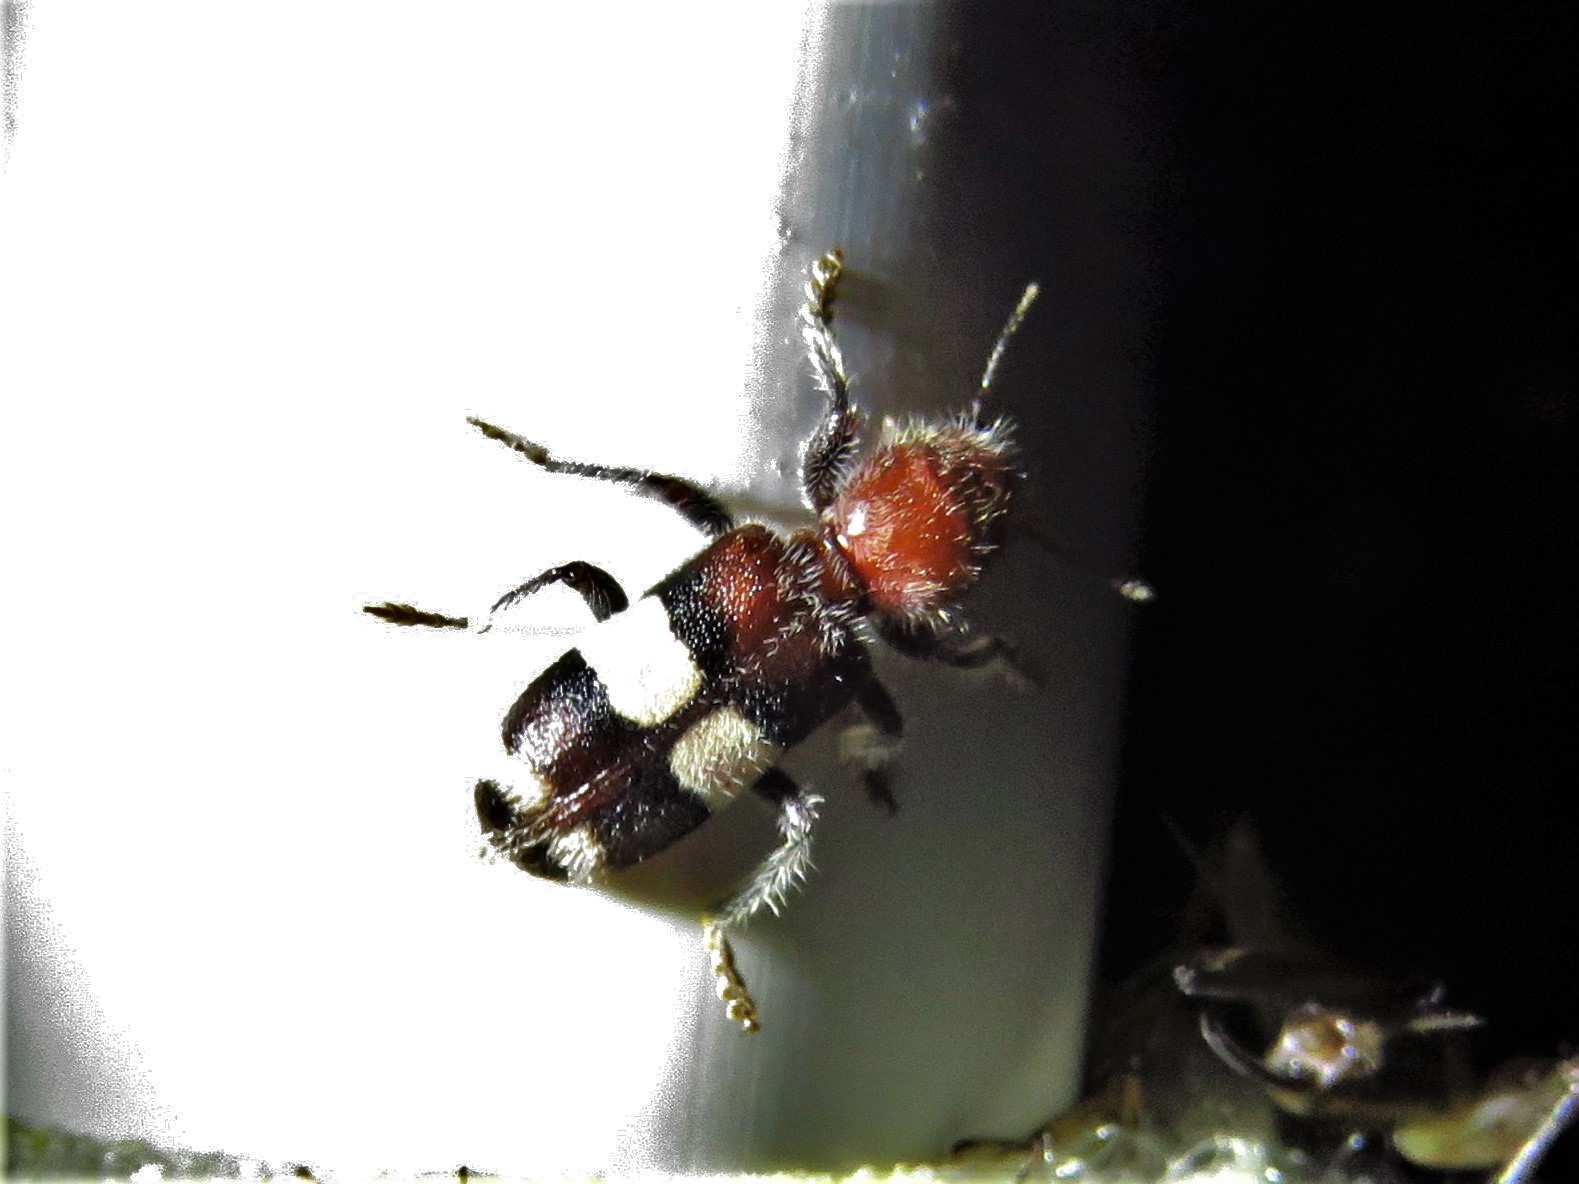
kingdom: Animalia
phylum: Arthropoda
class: Insecta
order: Coleoptera
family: Cleridae
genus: Enoclerus
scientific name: Enoclerus quadrisignatus
